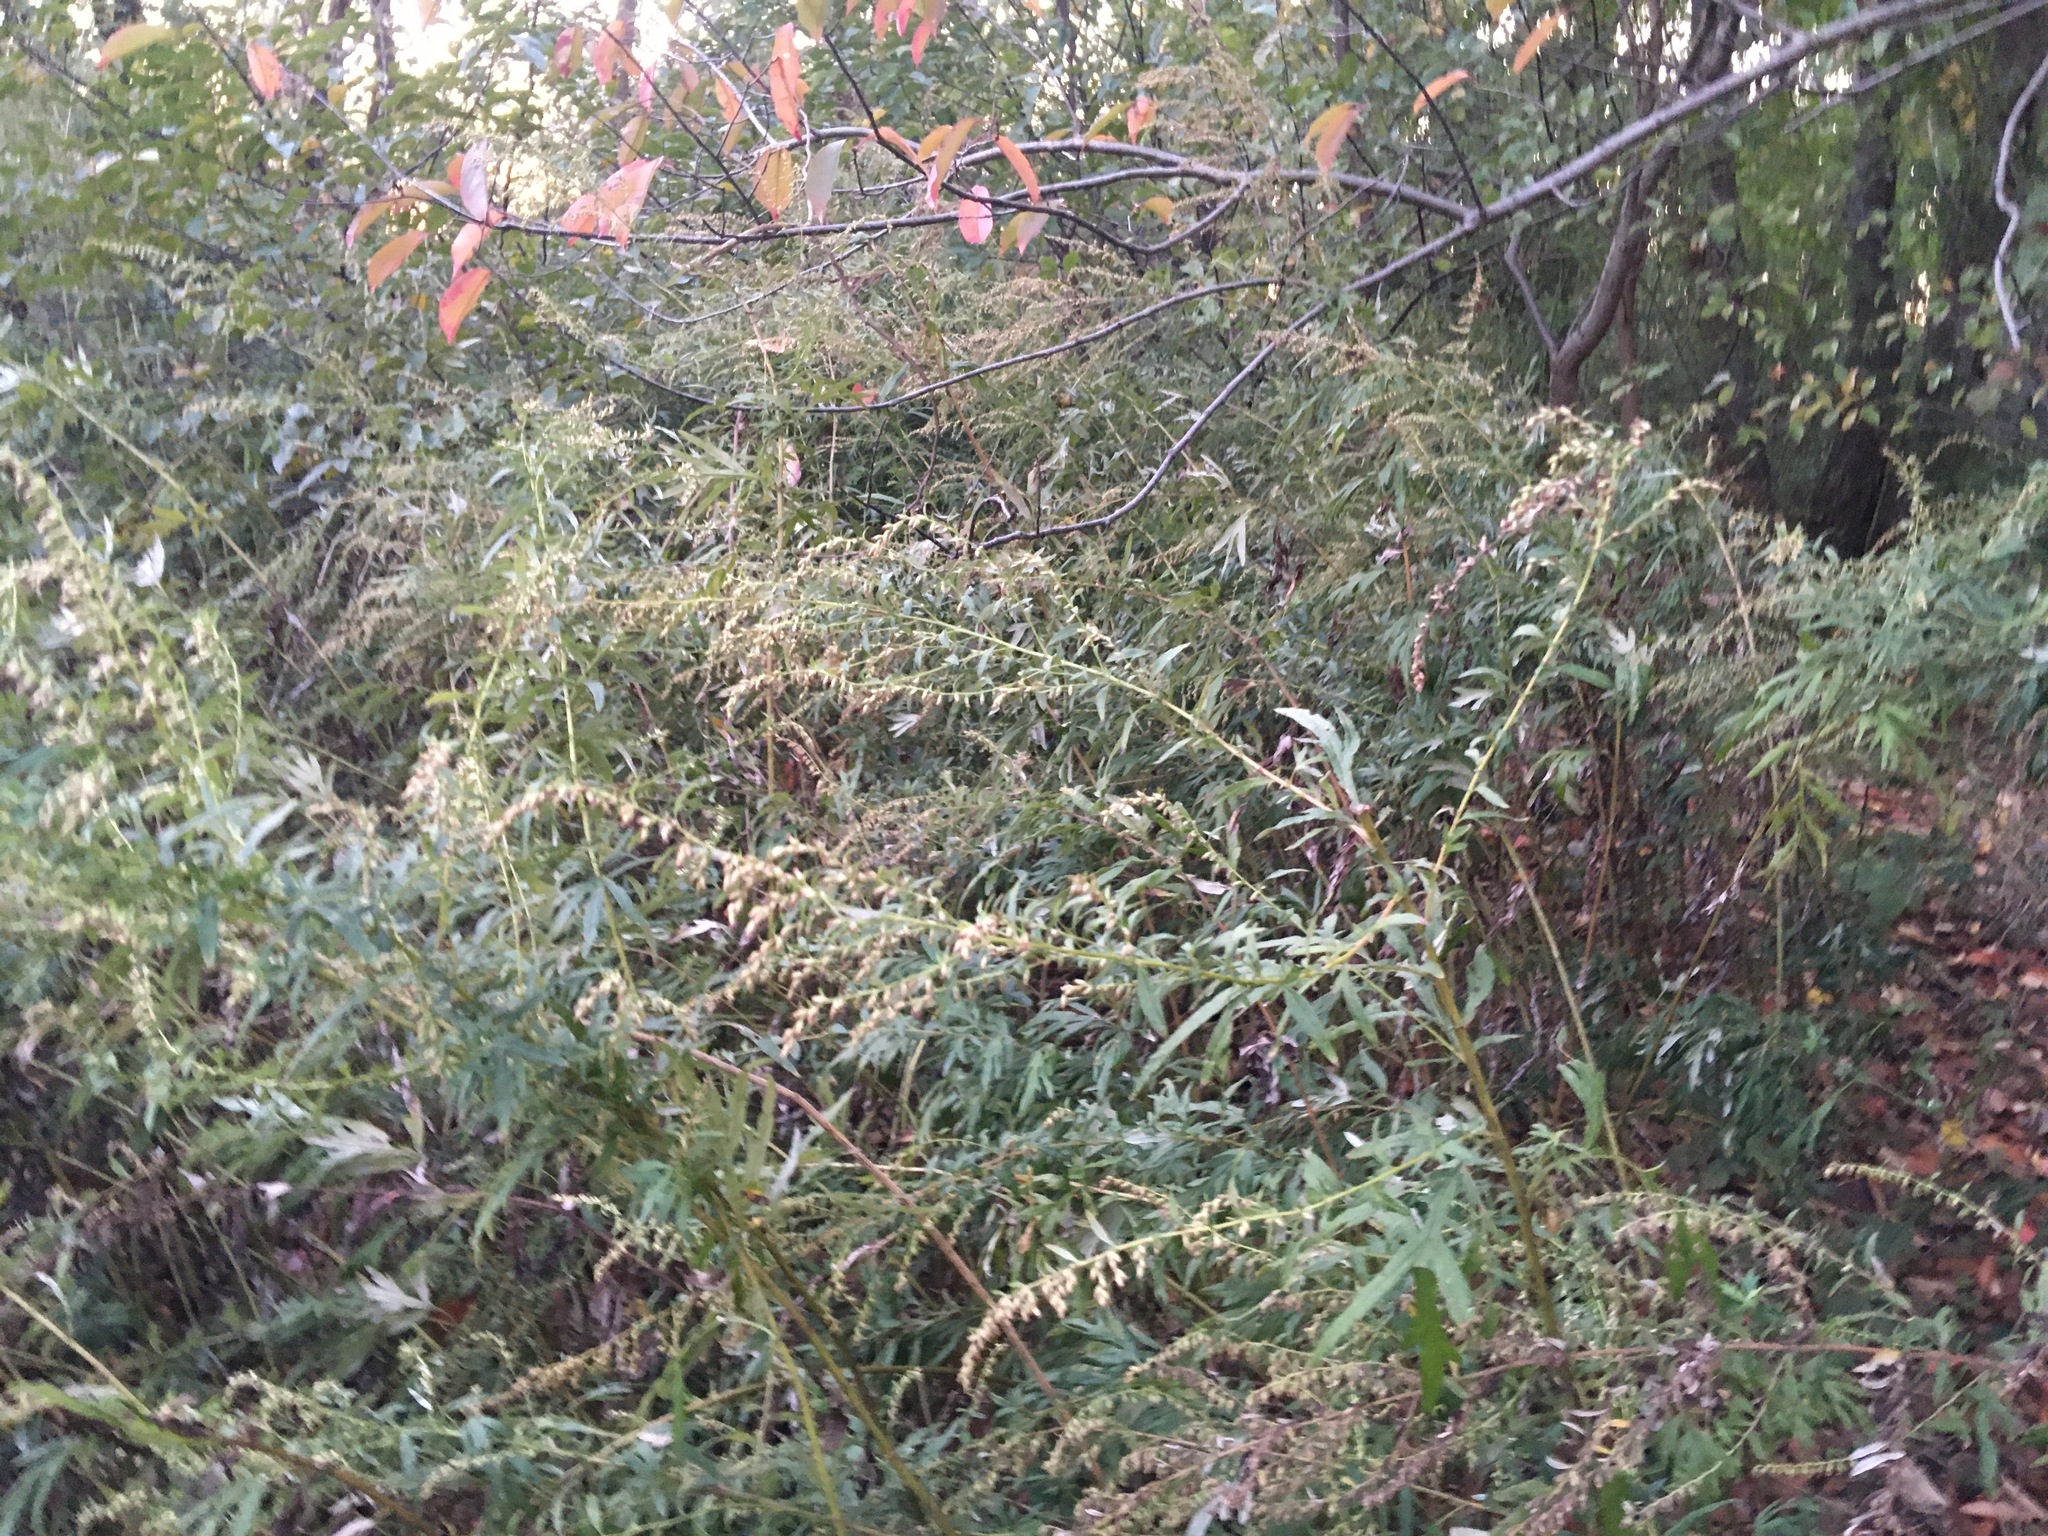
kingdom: Plantae
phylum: Tracheophyta
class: Magnoliopsida
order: Asterales
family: Asteraceae
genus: Artemisia
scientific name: Artemisia vulgaris
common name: Mugwort
